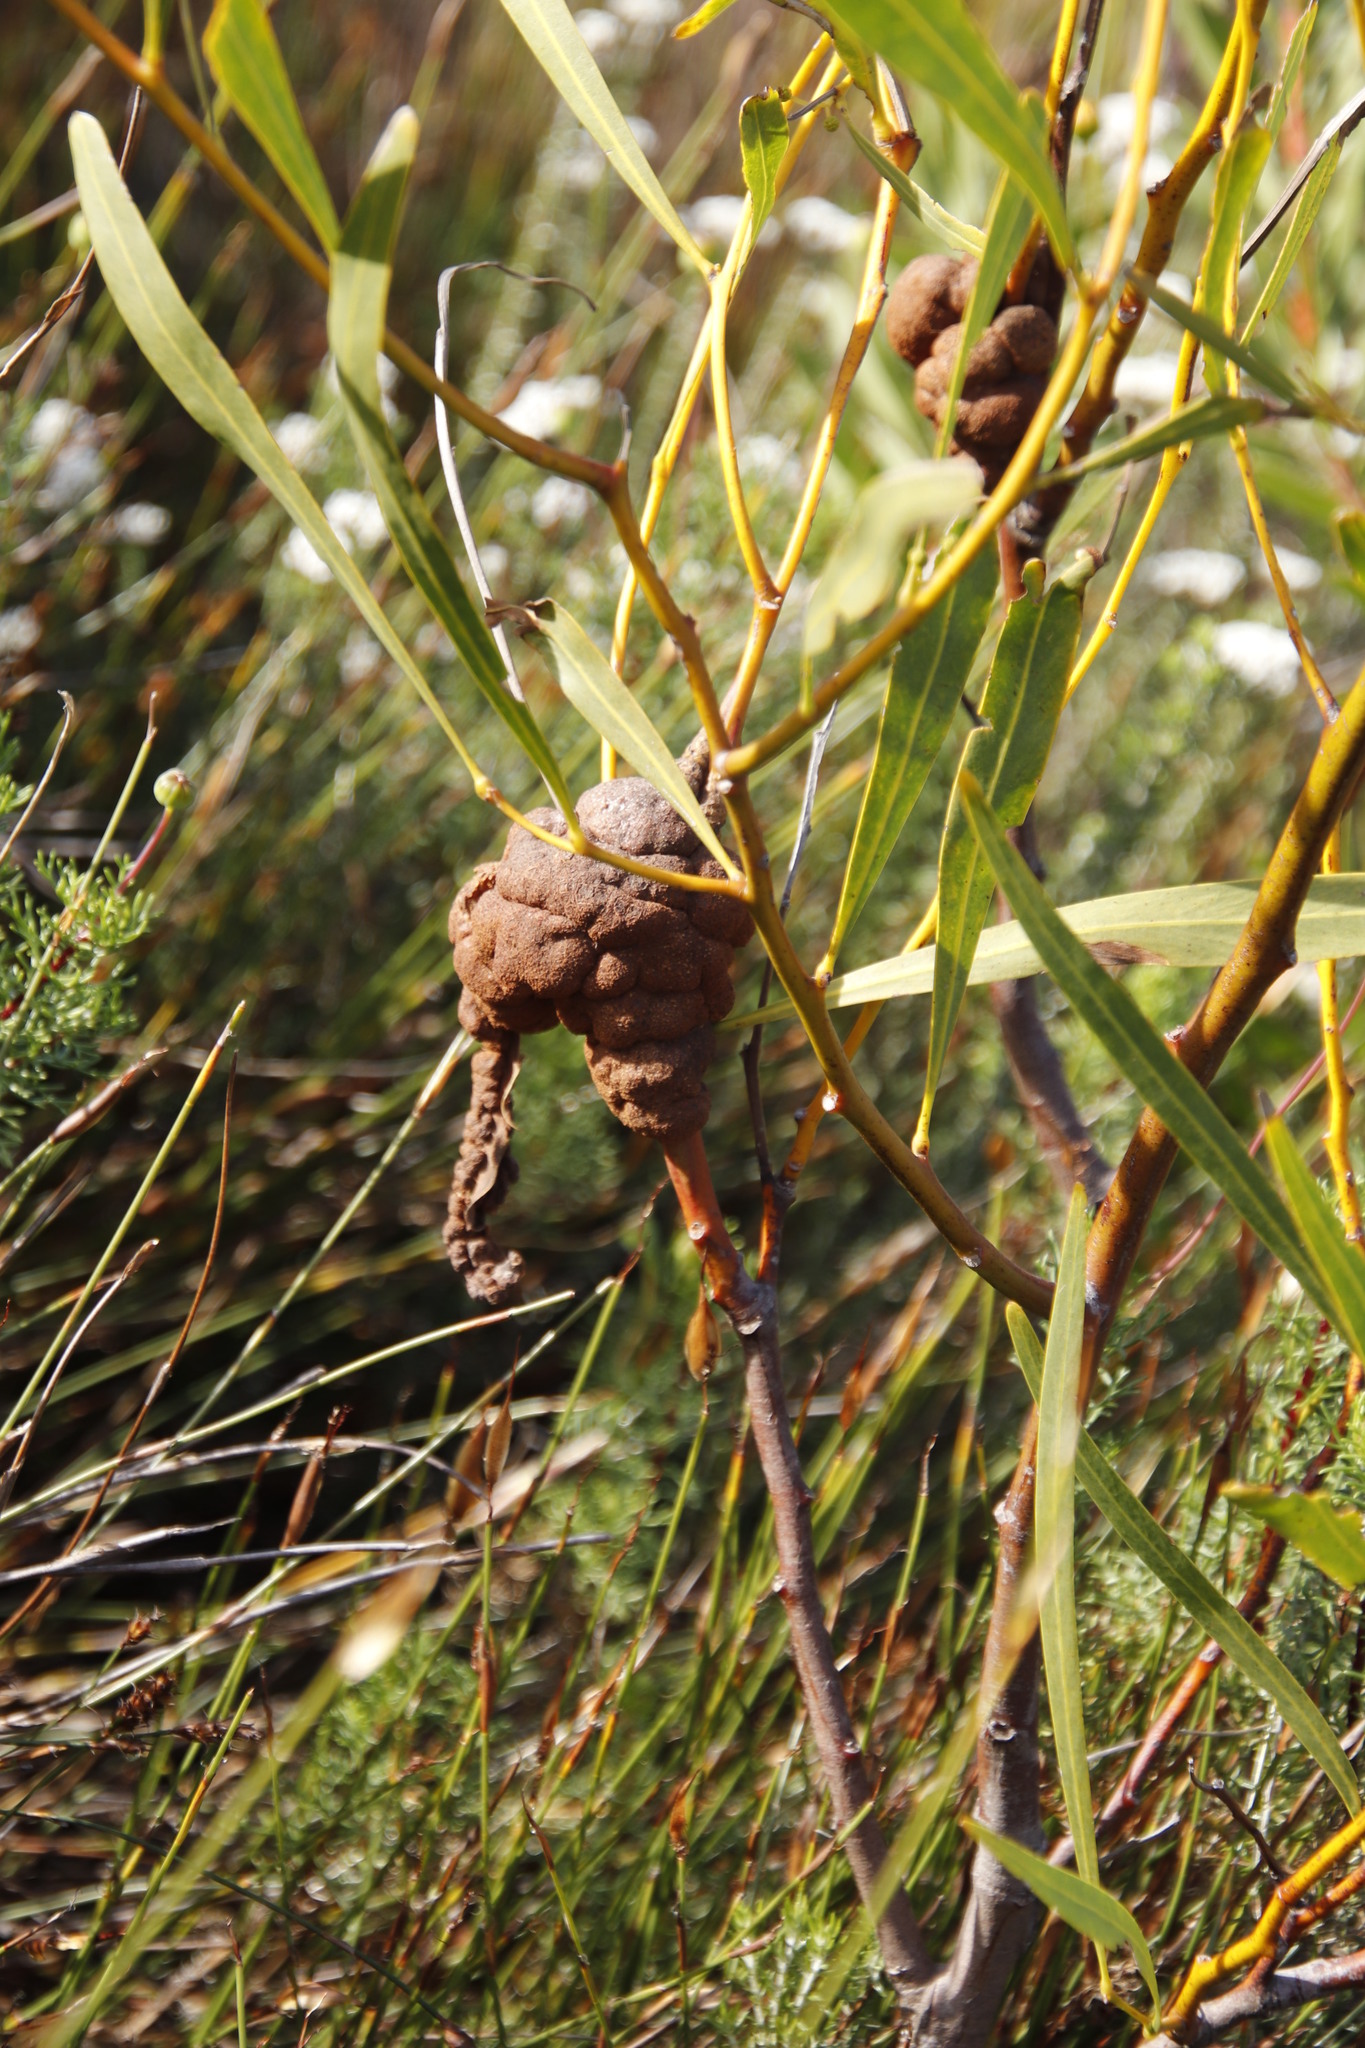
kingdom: Fungi
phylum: Basidiomycota
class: Pucciniomycetes
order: Pucciniales
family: Uromycladiaceae
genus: Uromycladium
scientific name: Uromycladium morrisii
